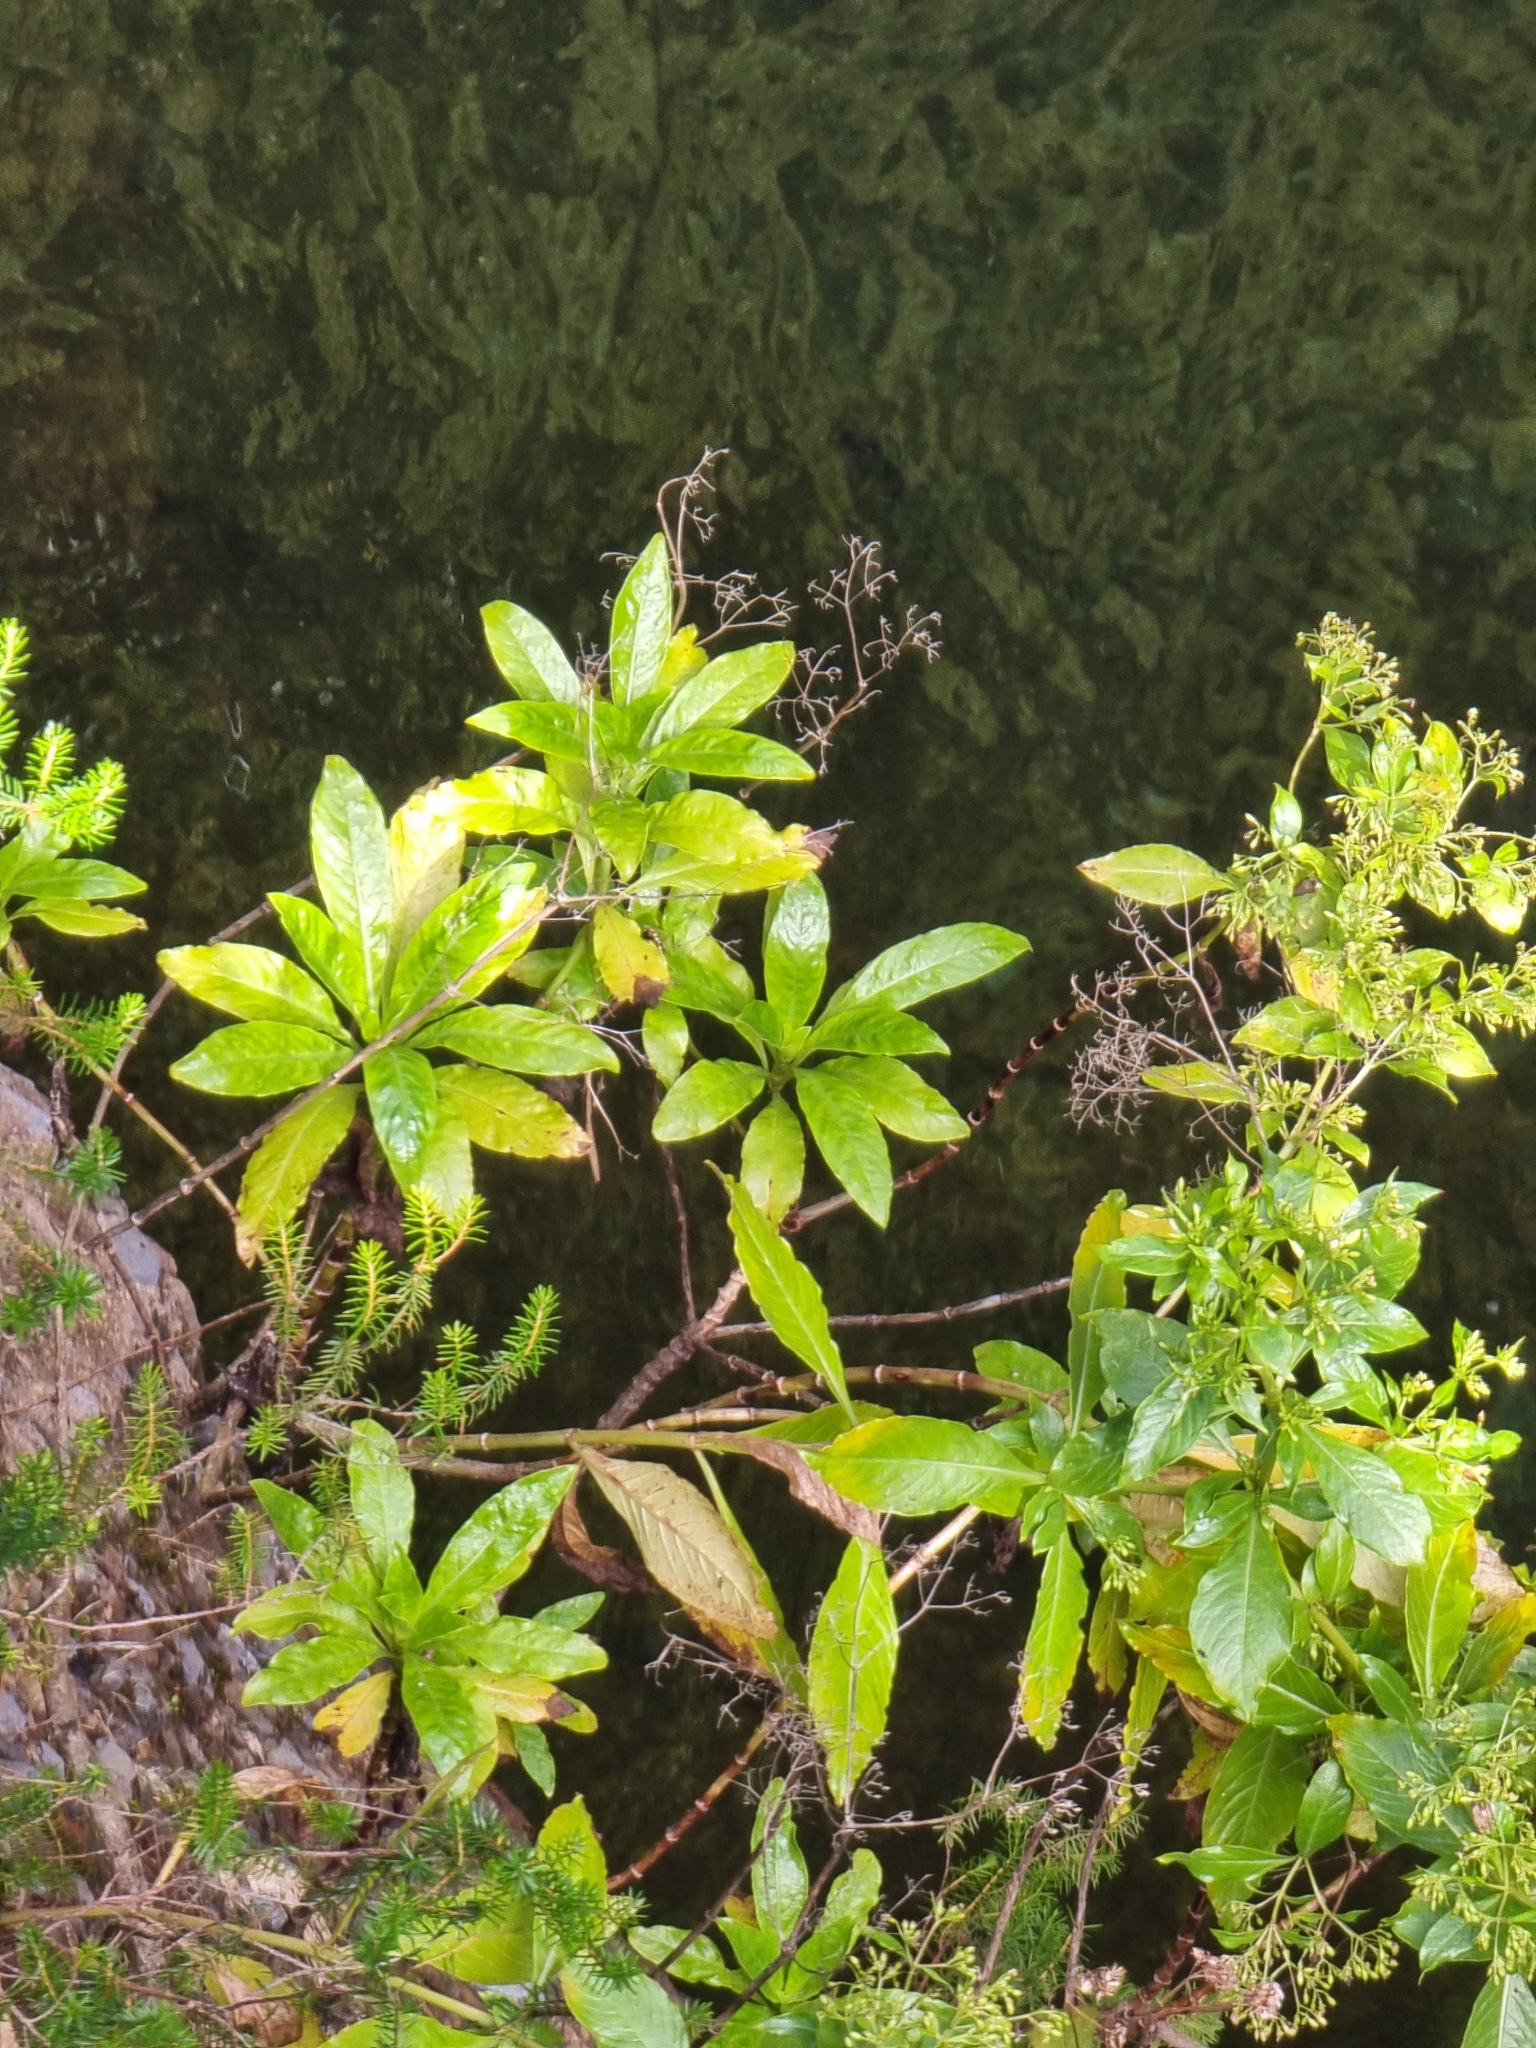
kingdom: Plantae
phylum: Tracheophyta
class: Magnoliopsida
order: Gentianales
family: Rubiaceae
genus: Phyllis
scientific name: Phyllis nobla
